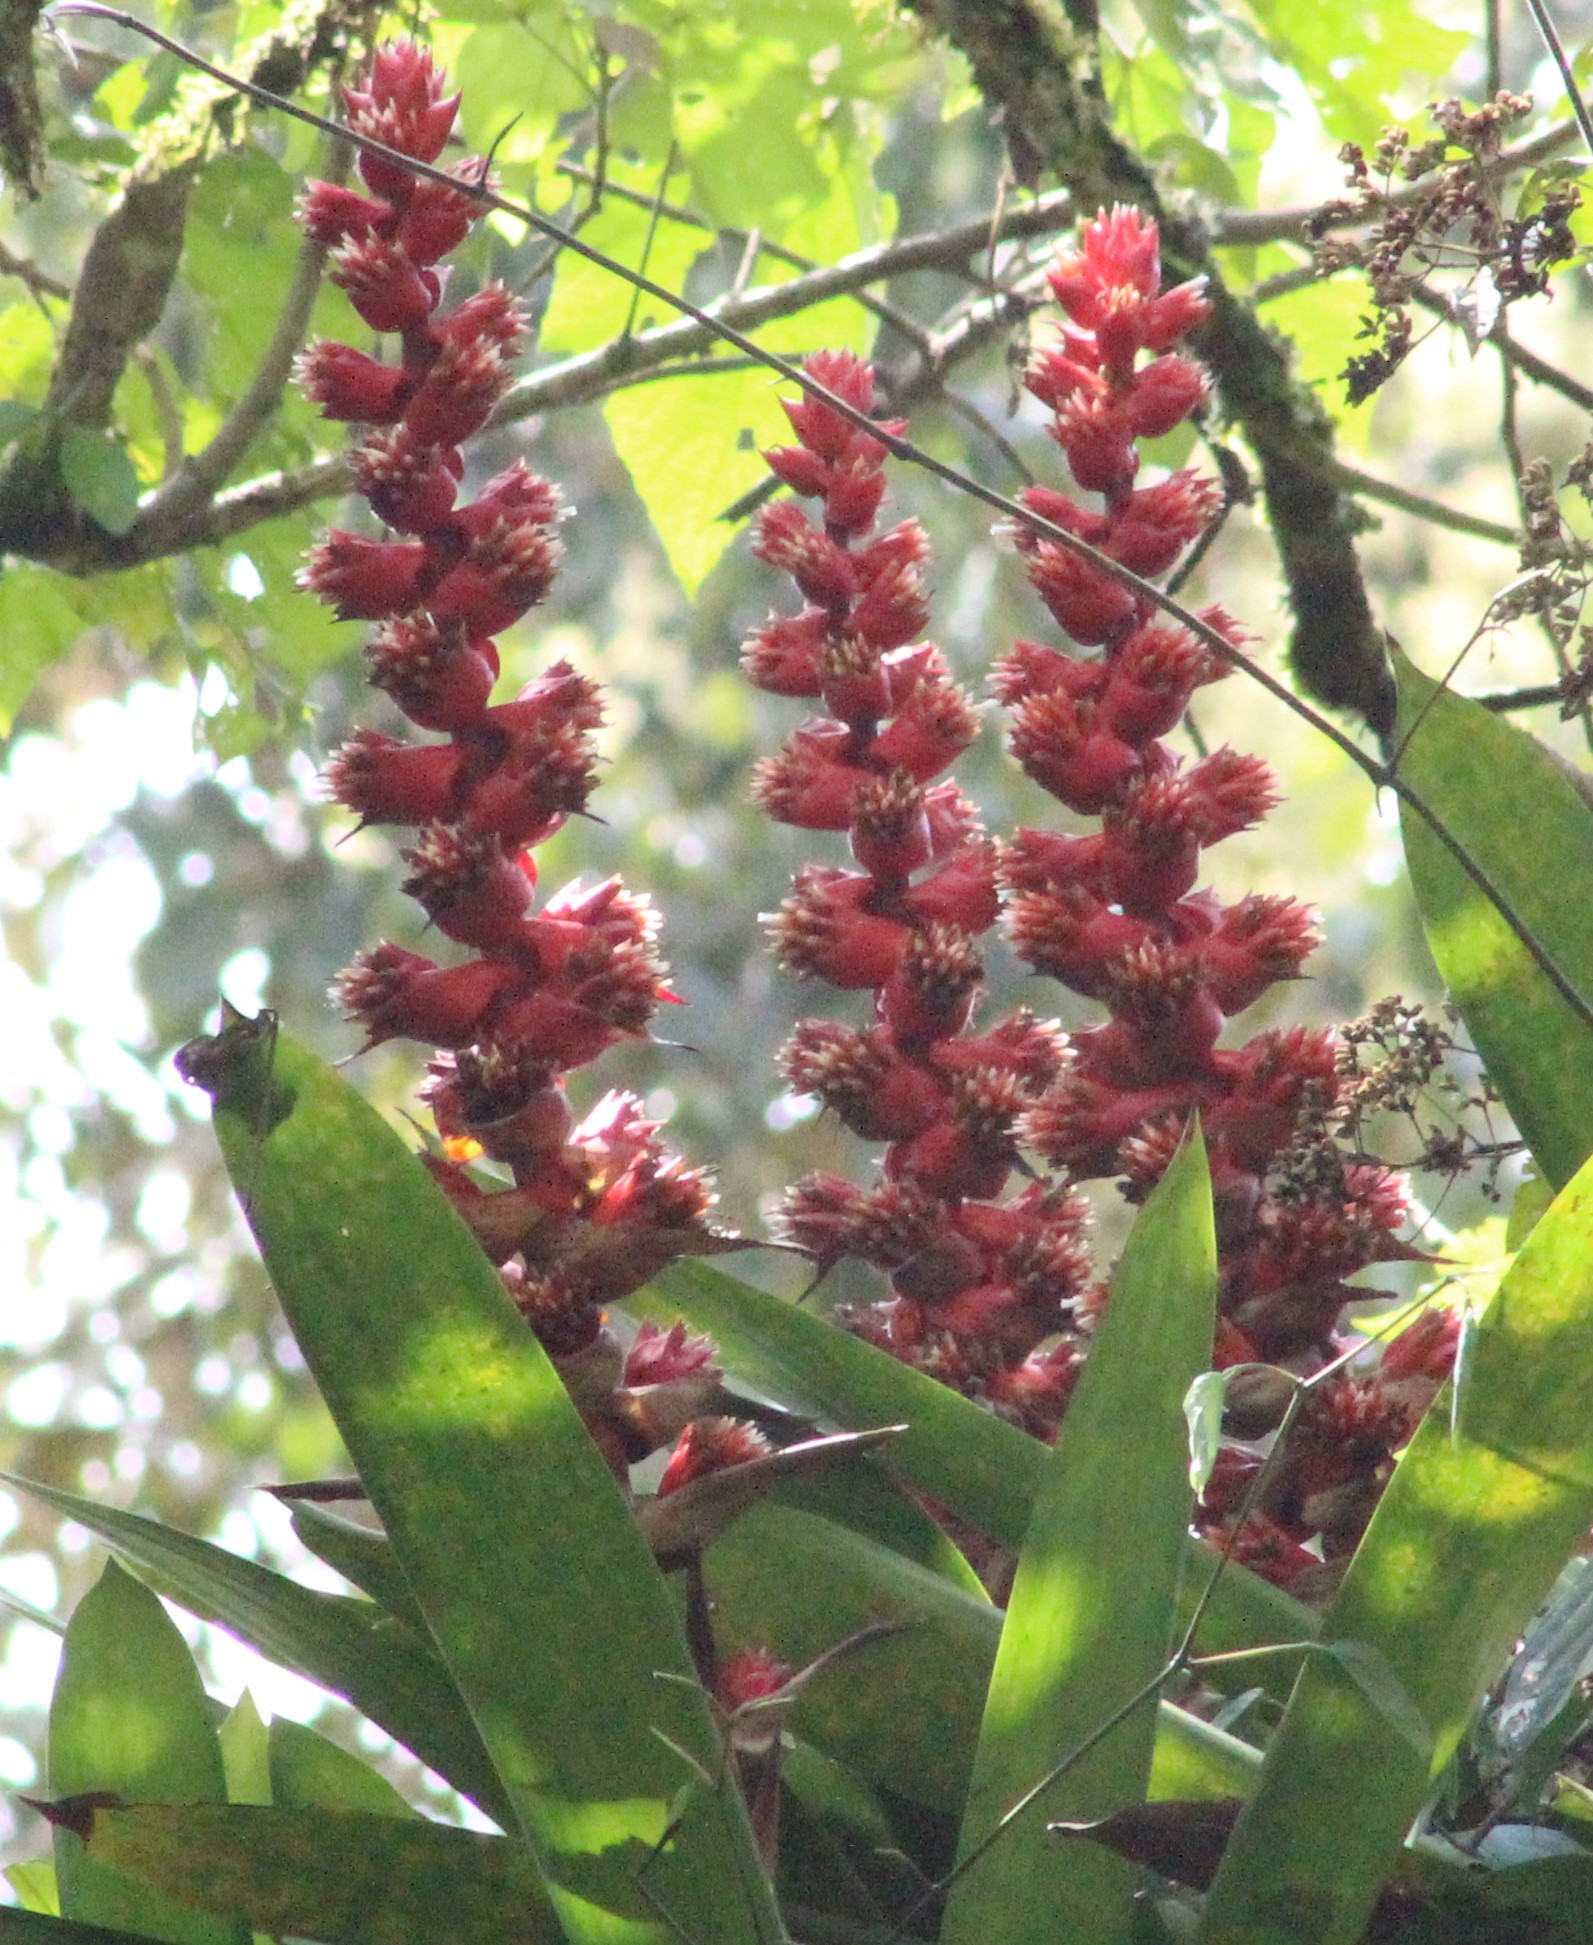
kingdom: Plantae
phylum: Tracheophyta
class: Liliopsida
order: Poales
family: Bromeliaceae
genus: Cipuropsis
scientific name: Cipuropsis capituligera
